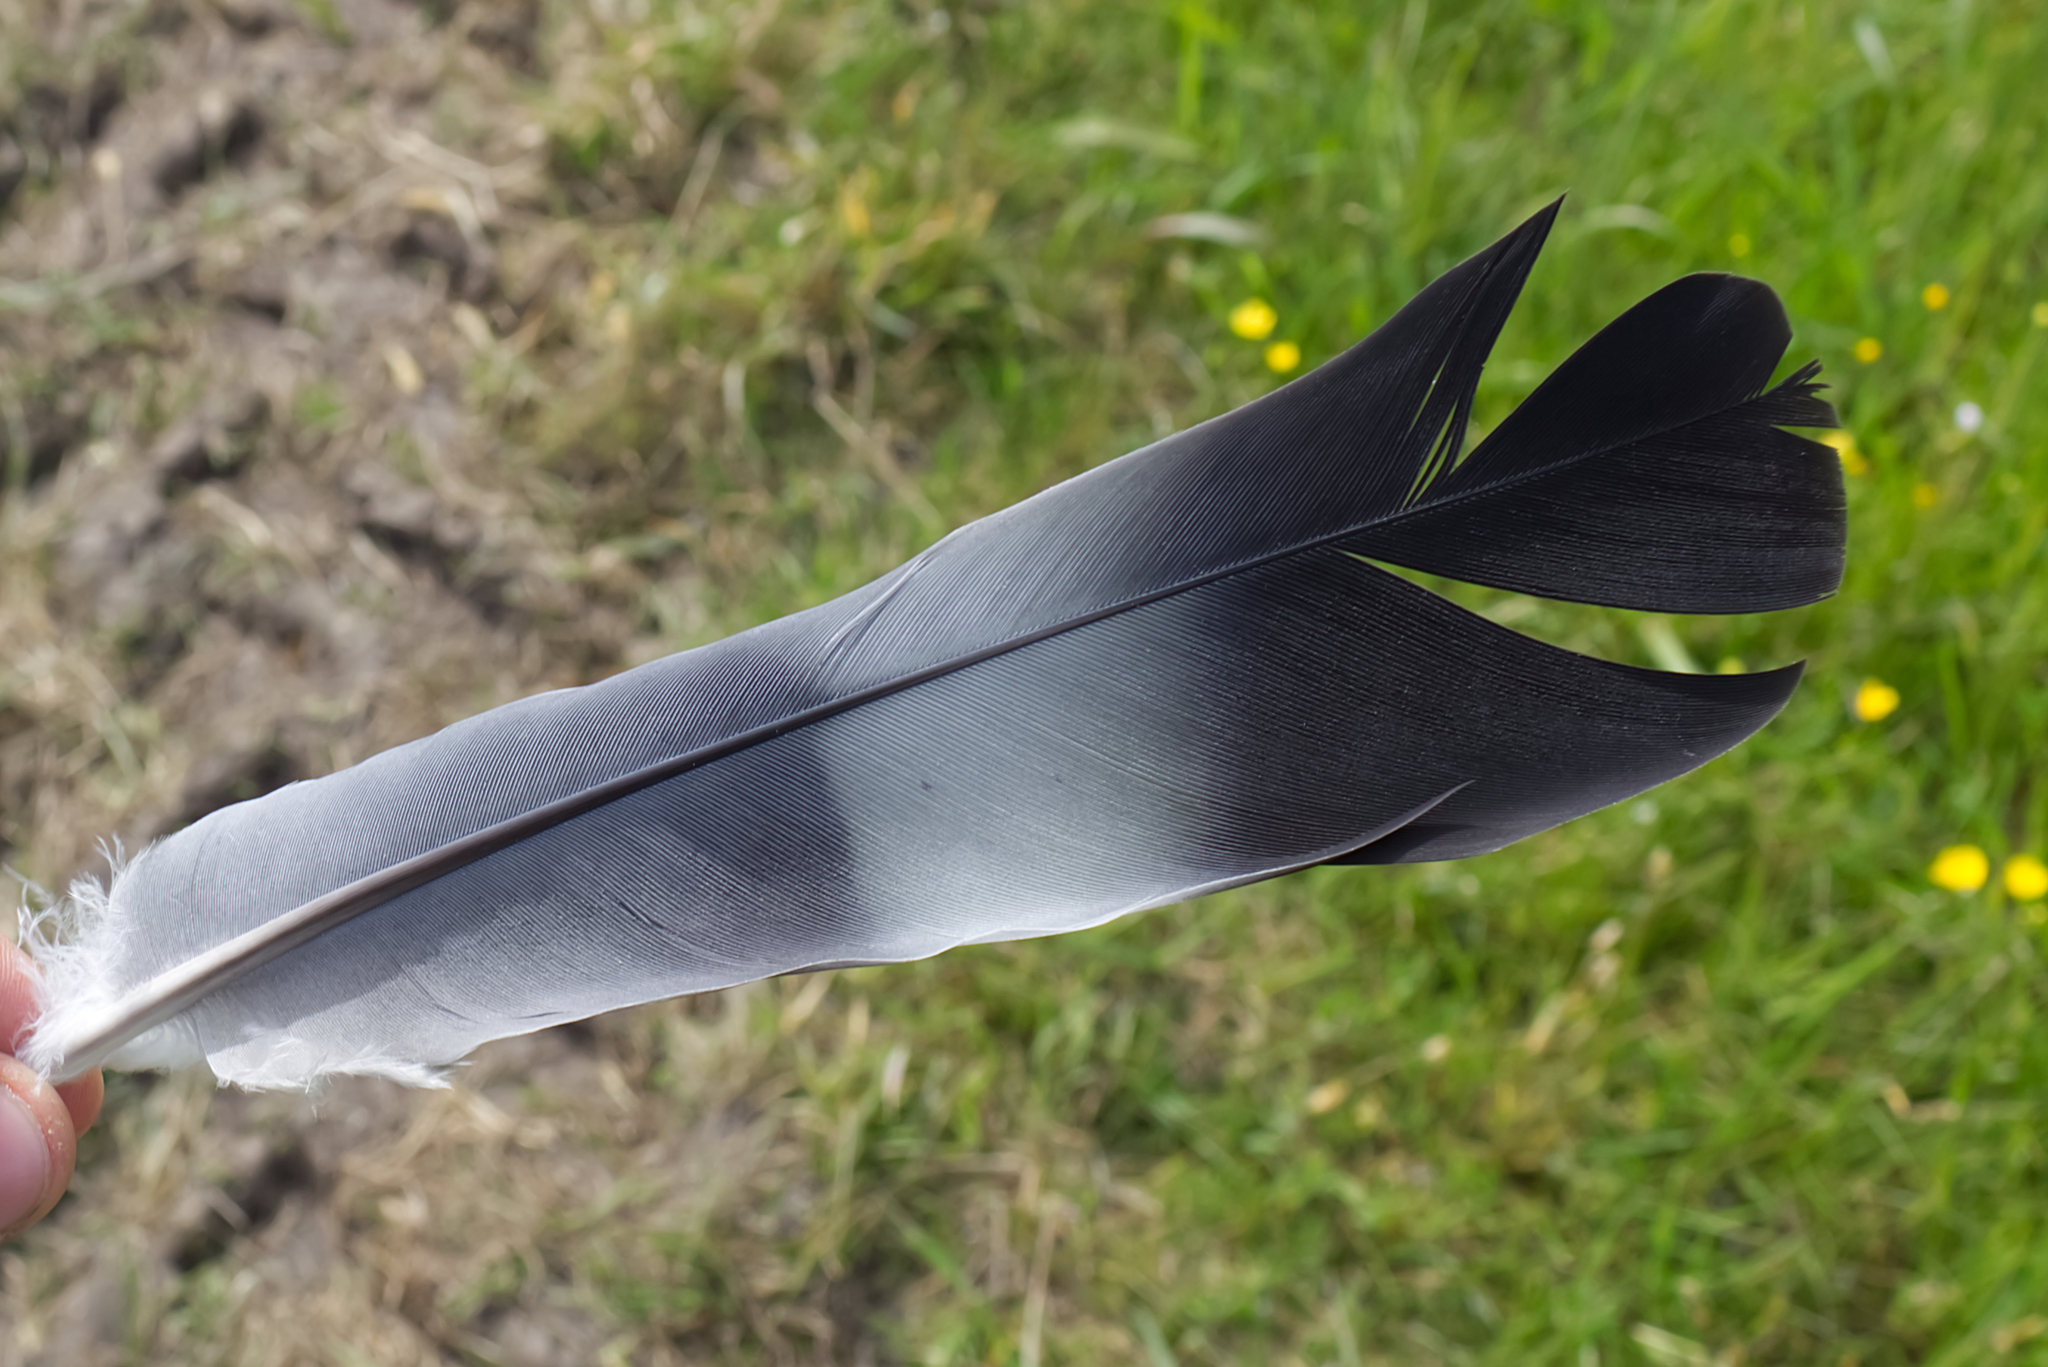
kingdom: Animalia
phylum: Chordata
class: Aves
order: Columbiformes
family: Columbidae
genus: Columba
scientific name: Columba palumbus
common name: Common wood pigeon
